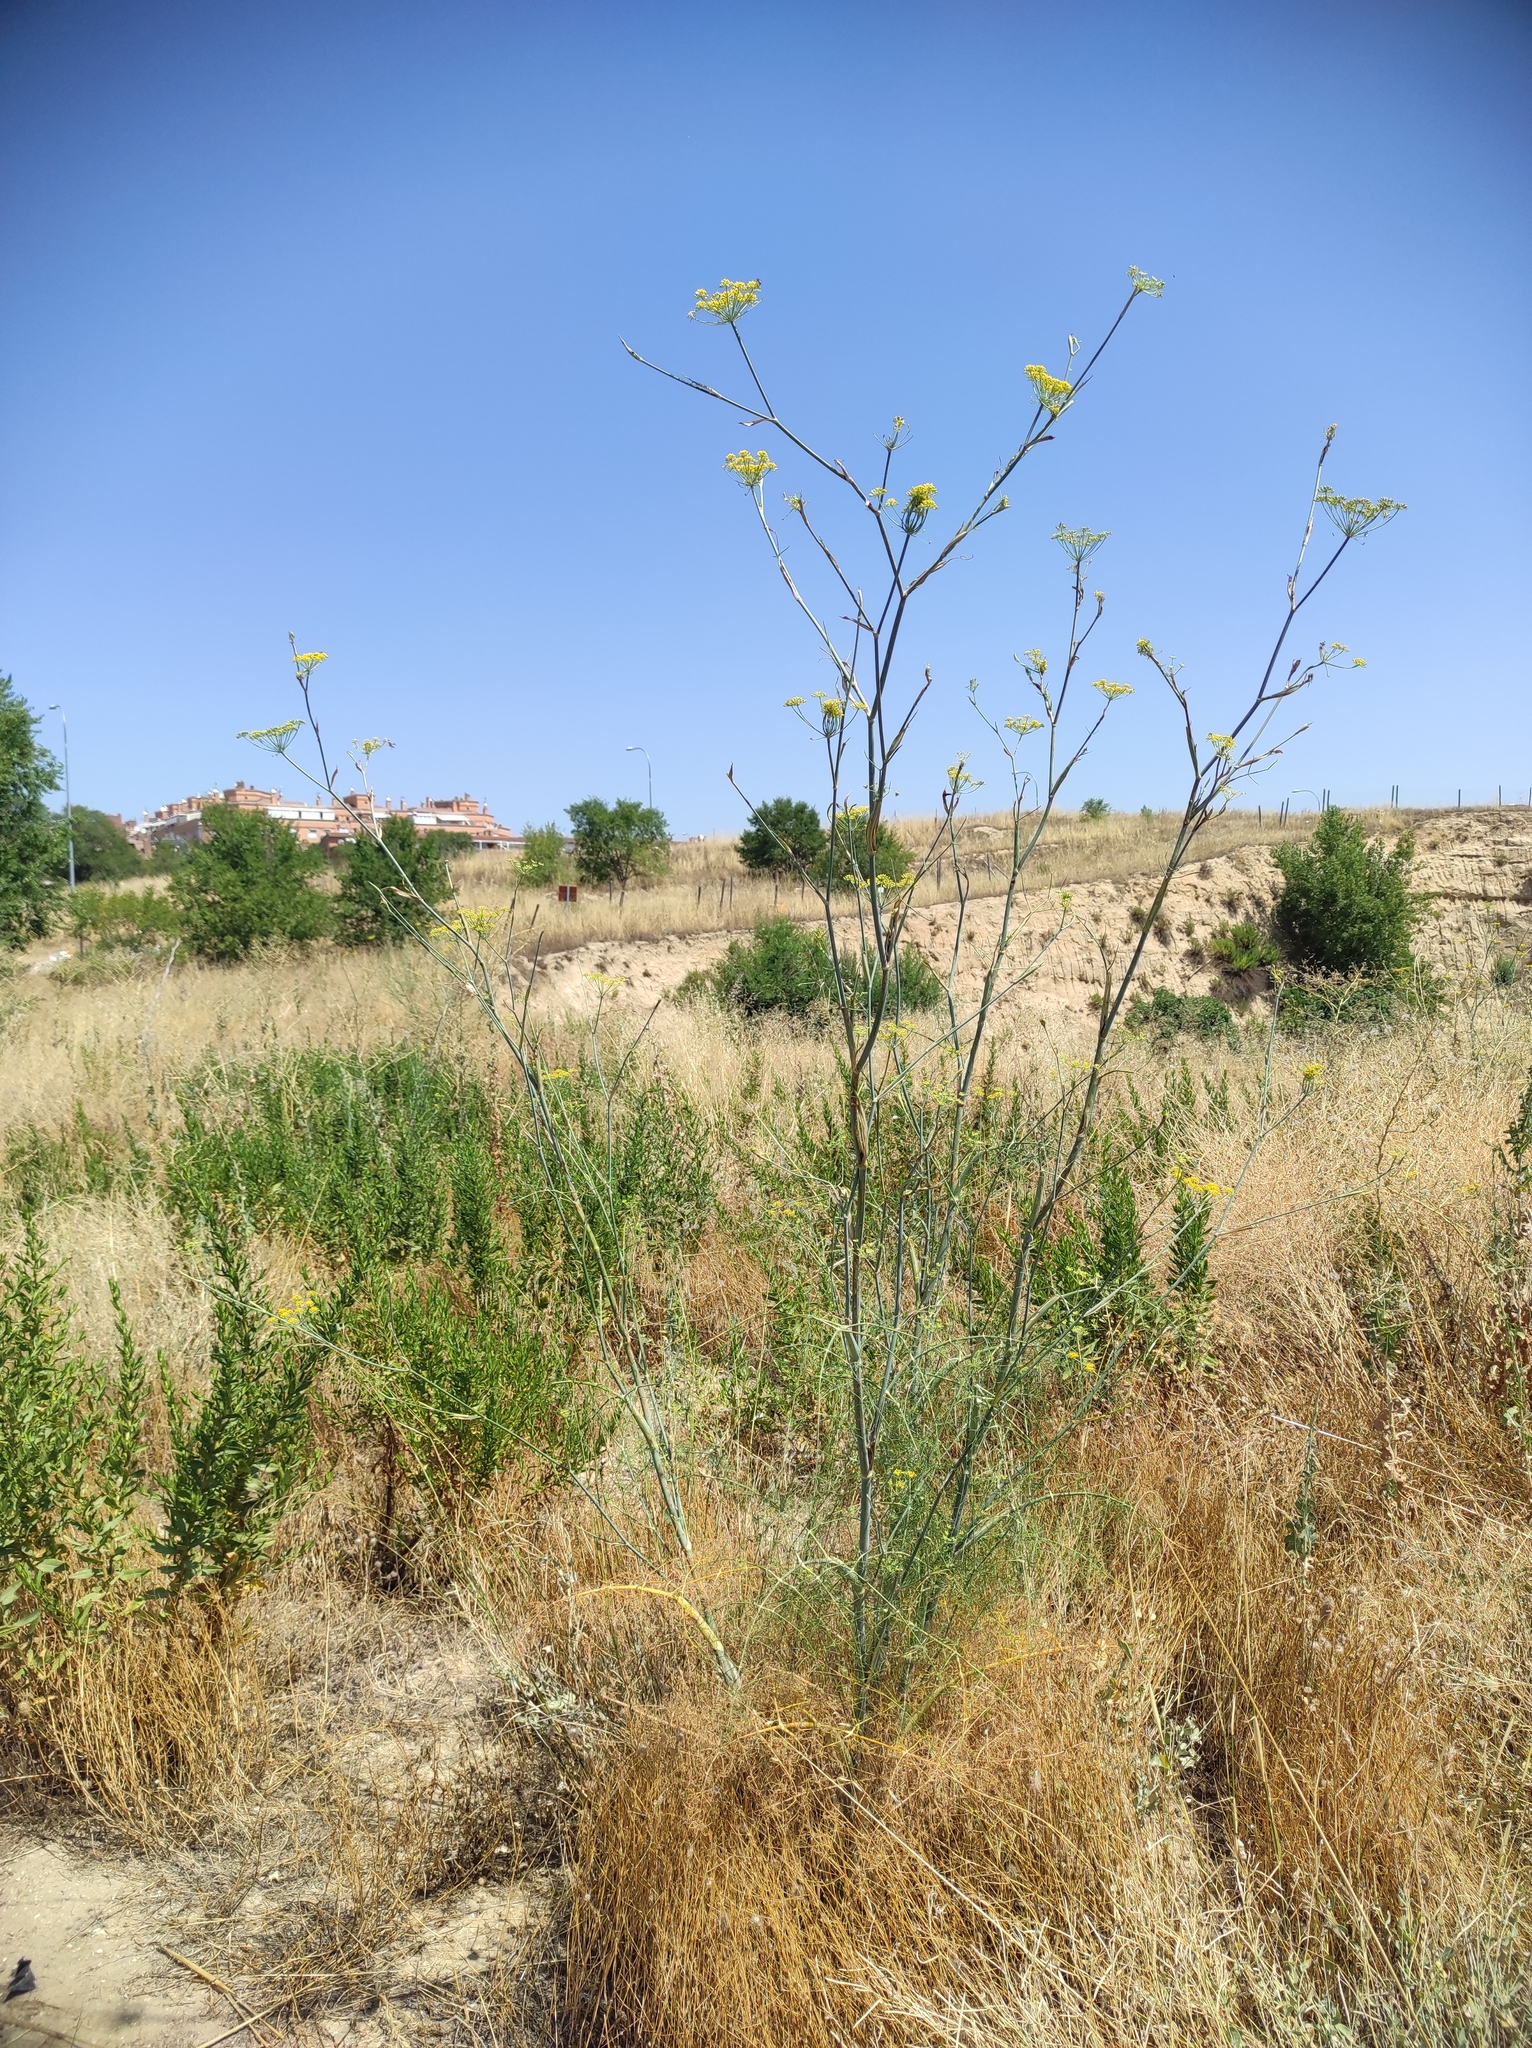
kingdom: Plantae
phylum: Tracheophyta
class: Magnoliopsida
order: Apiales
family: Apiaceae
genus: Foeniculum
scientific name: Foeniculum vulgare
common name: Fennel
